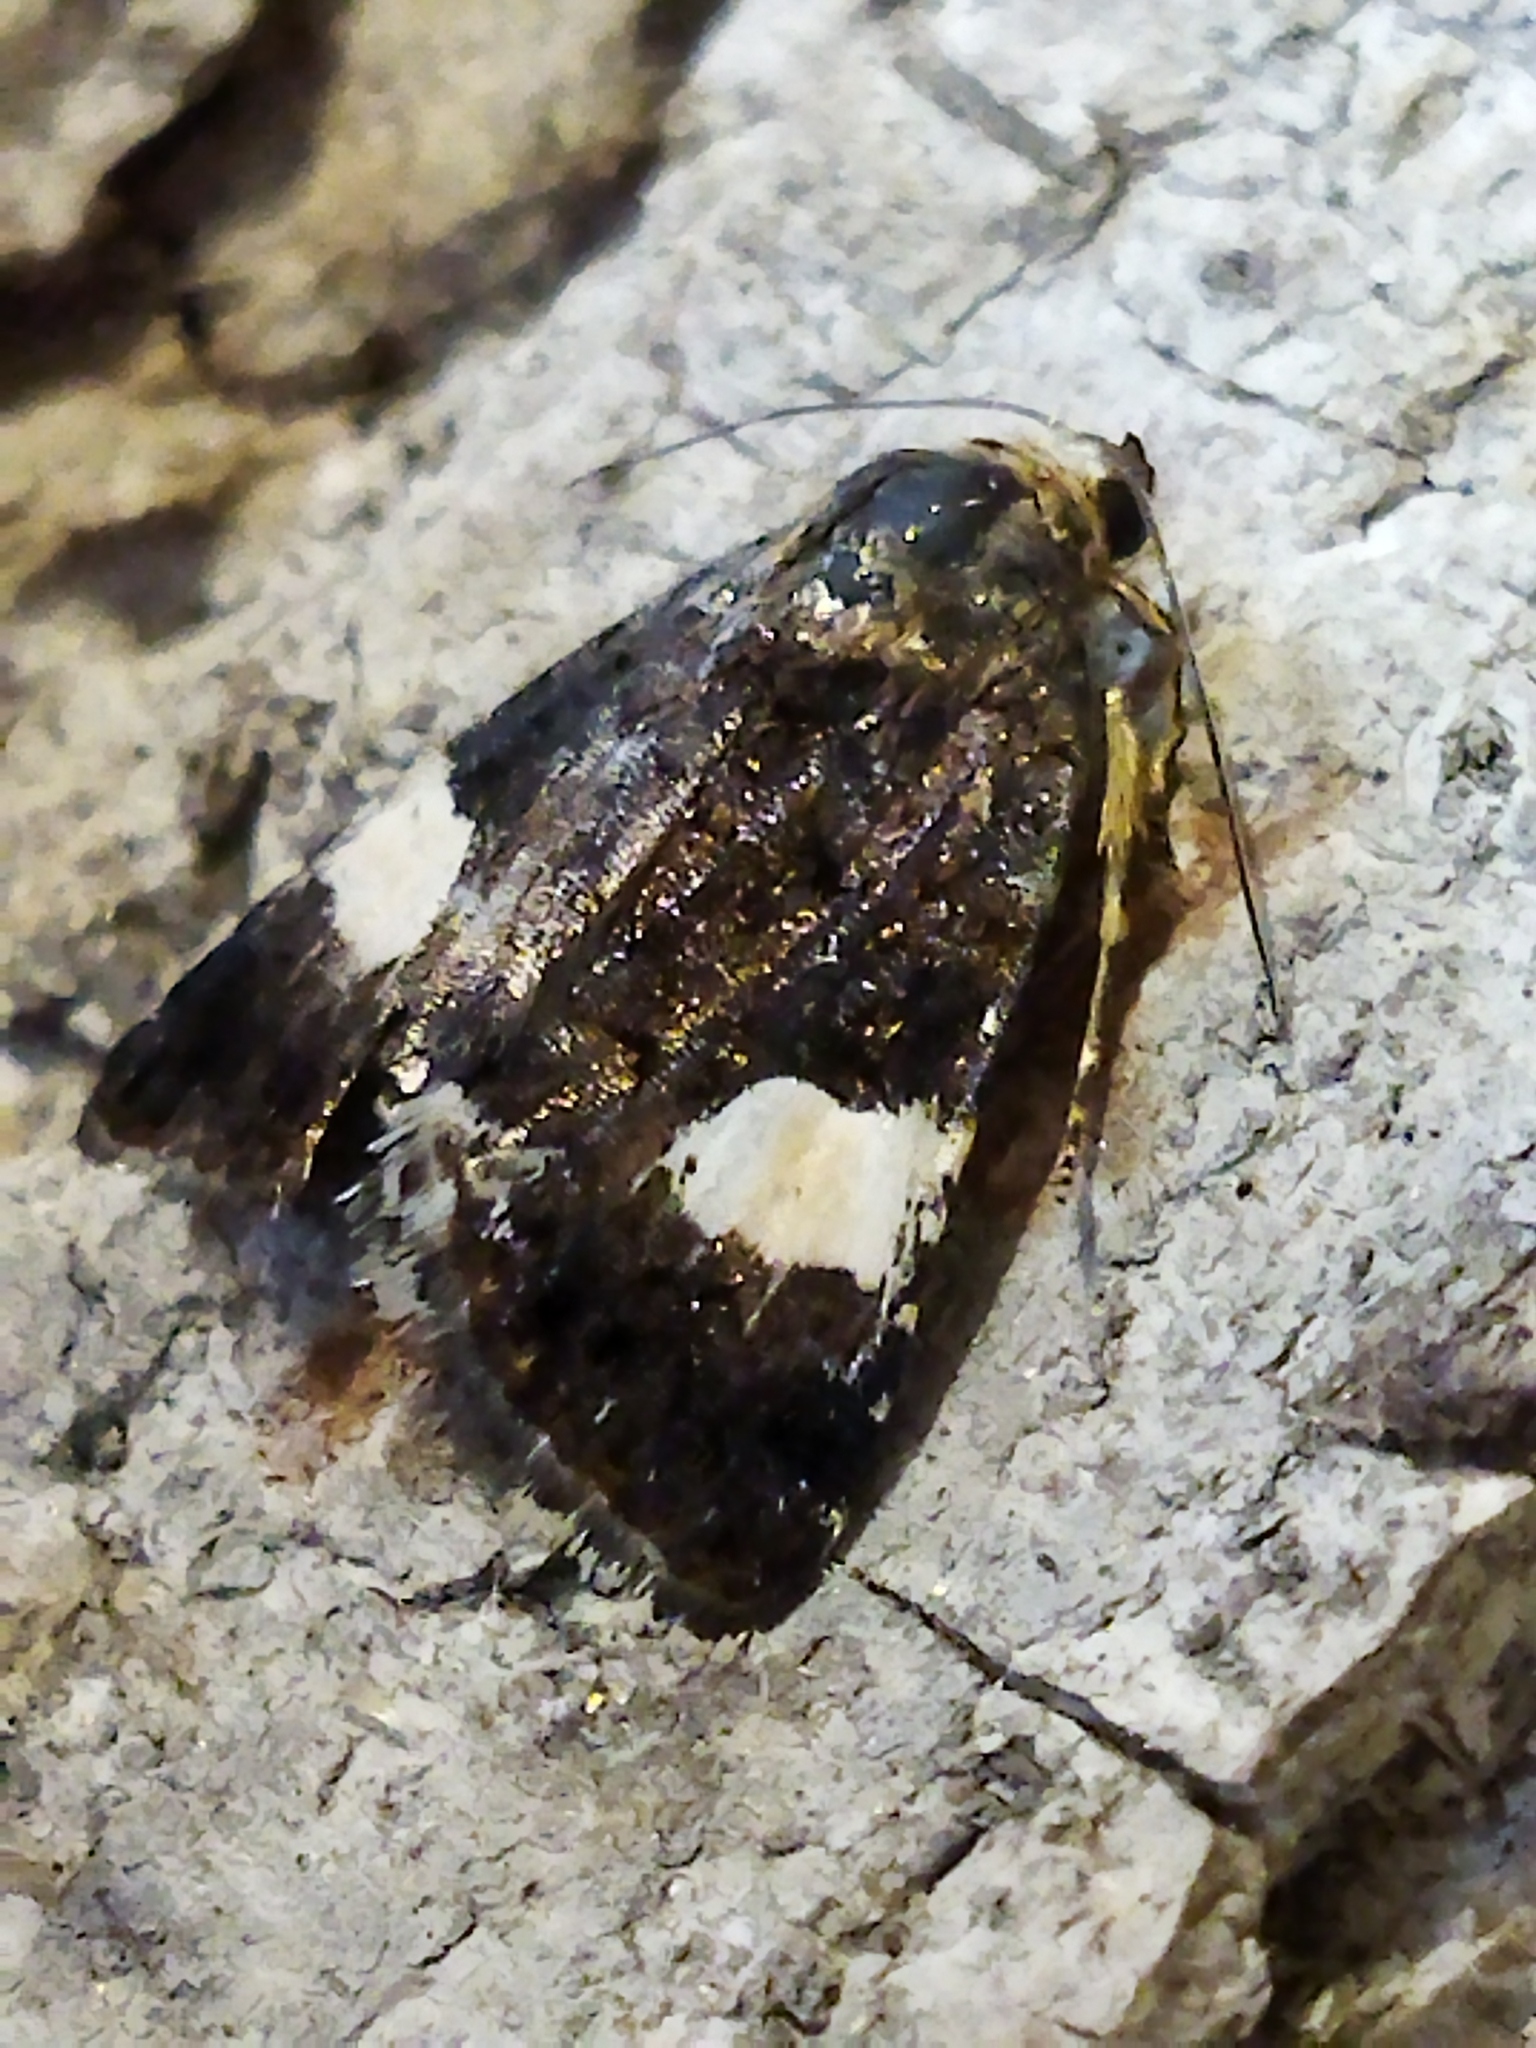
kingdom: Animalia
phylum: Arthropoda
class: Insecta
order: Lepidoptera
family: Erebidae
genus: Tyta
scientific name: Tyta luctuosa
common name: Four-spotted
